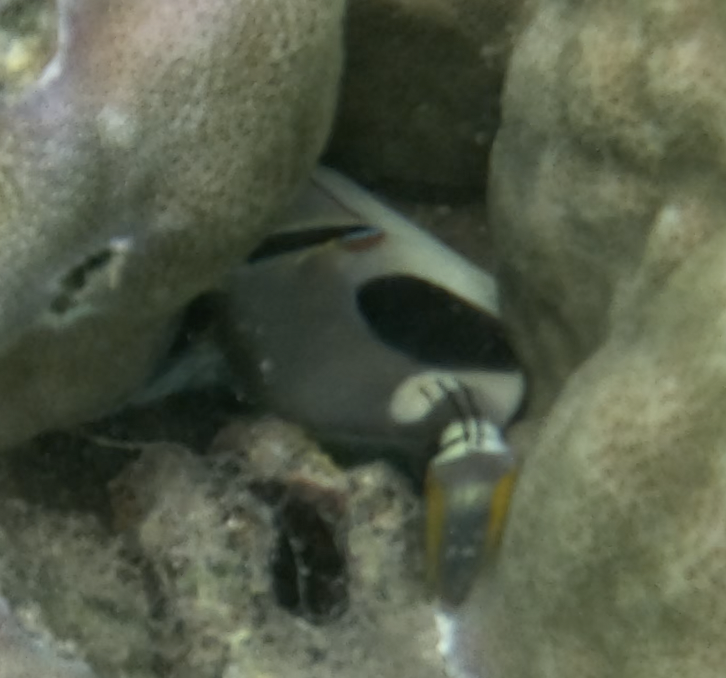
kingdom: Animalia
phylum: Chordata
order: Tetraodontiformes
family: Balistidae
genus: Rhinecanthus
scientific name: Rhinecanthus verrucosus
